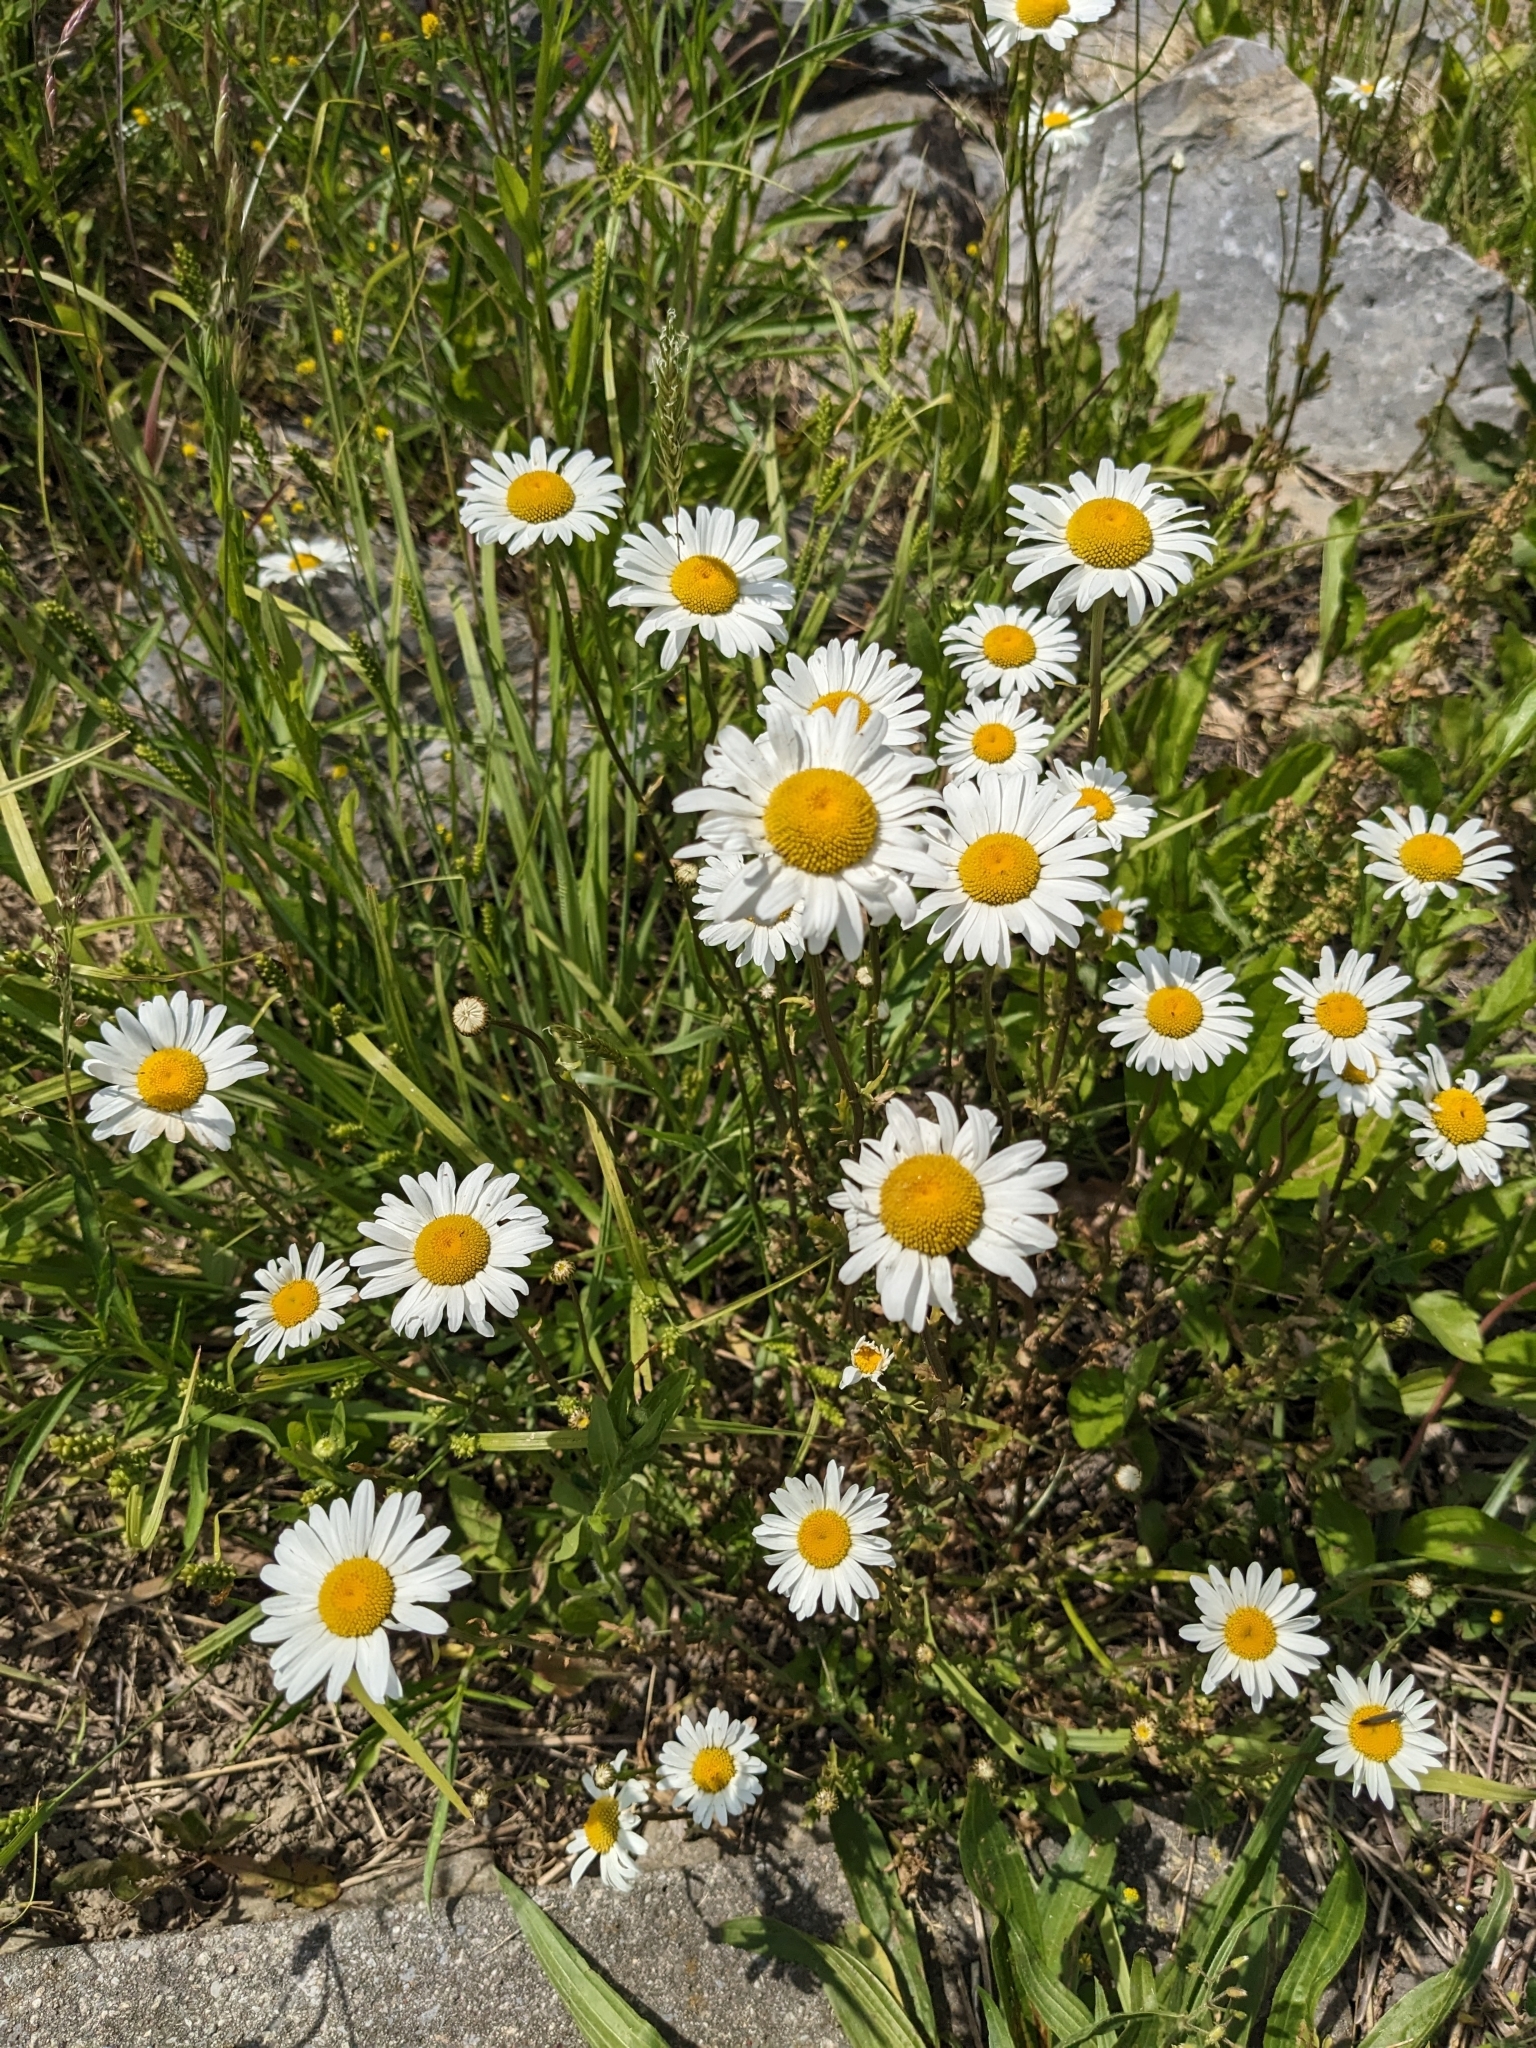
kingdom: Plantae
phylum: Tracheophyta
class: Magnoliopsida
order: Asterales
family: Asteraceae
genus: Leucanthemum
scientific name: Leucanthemum vulgare
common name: Oxeye daisy
